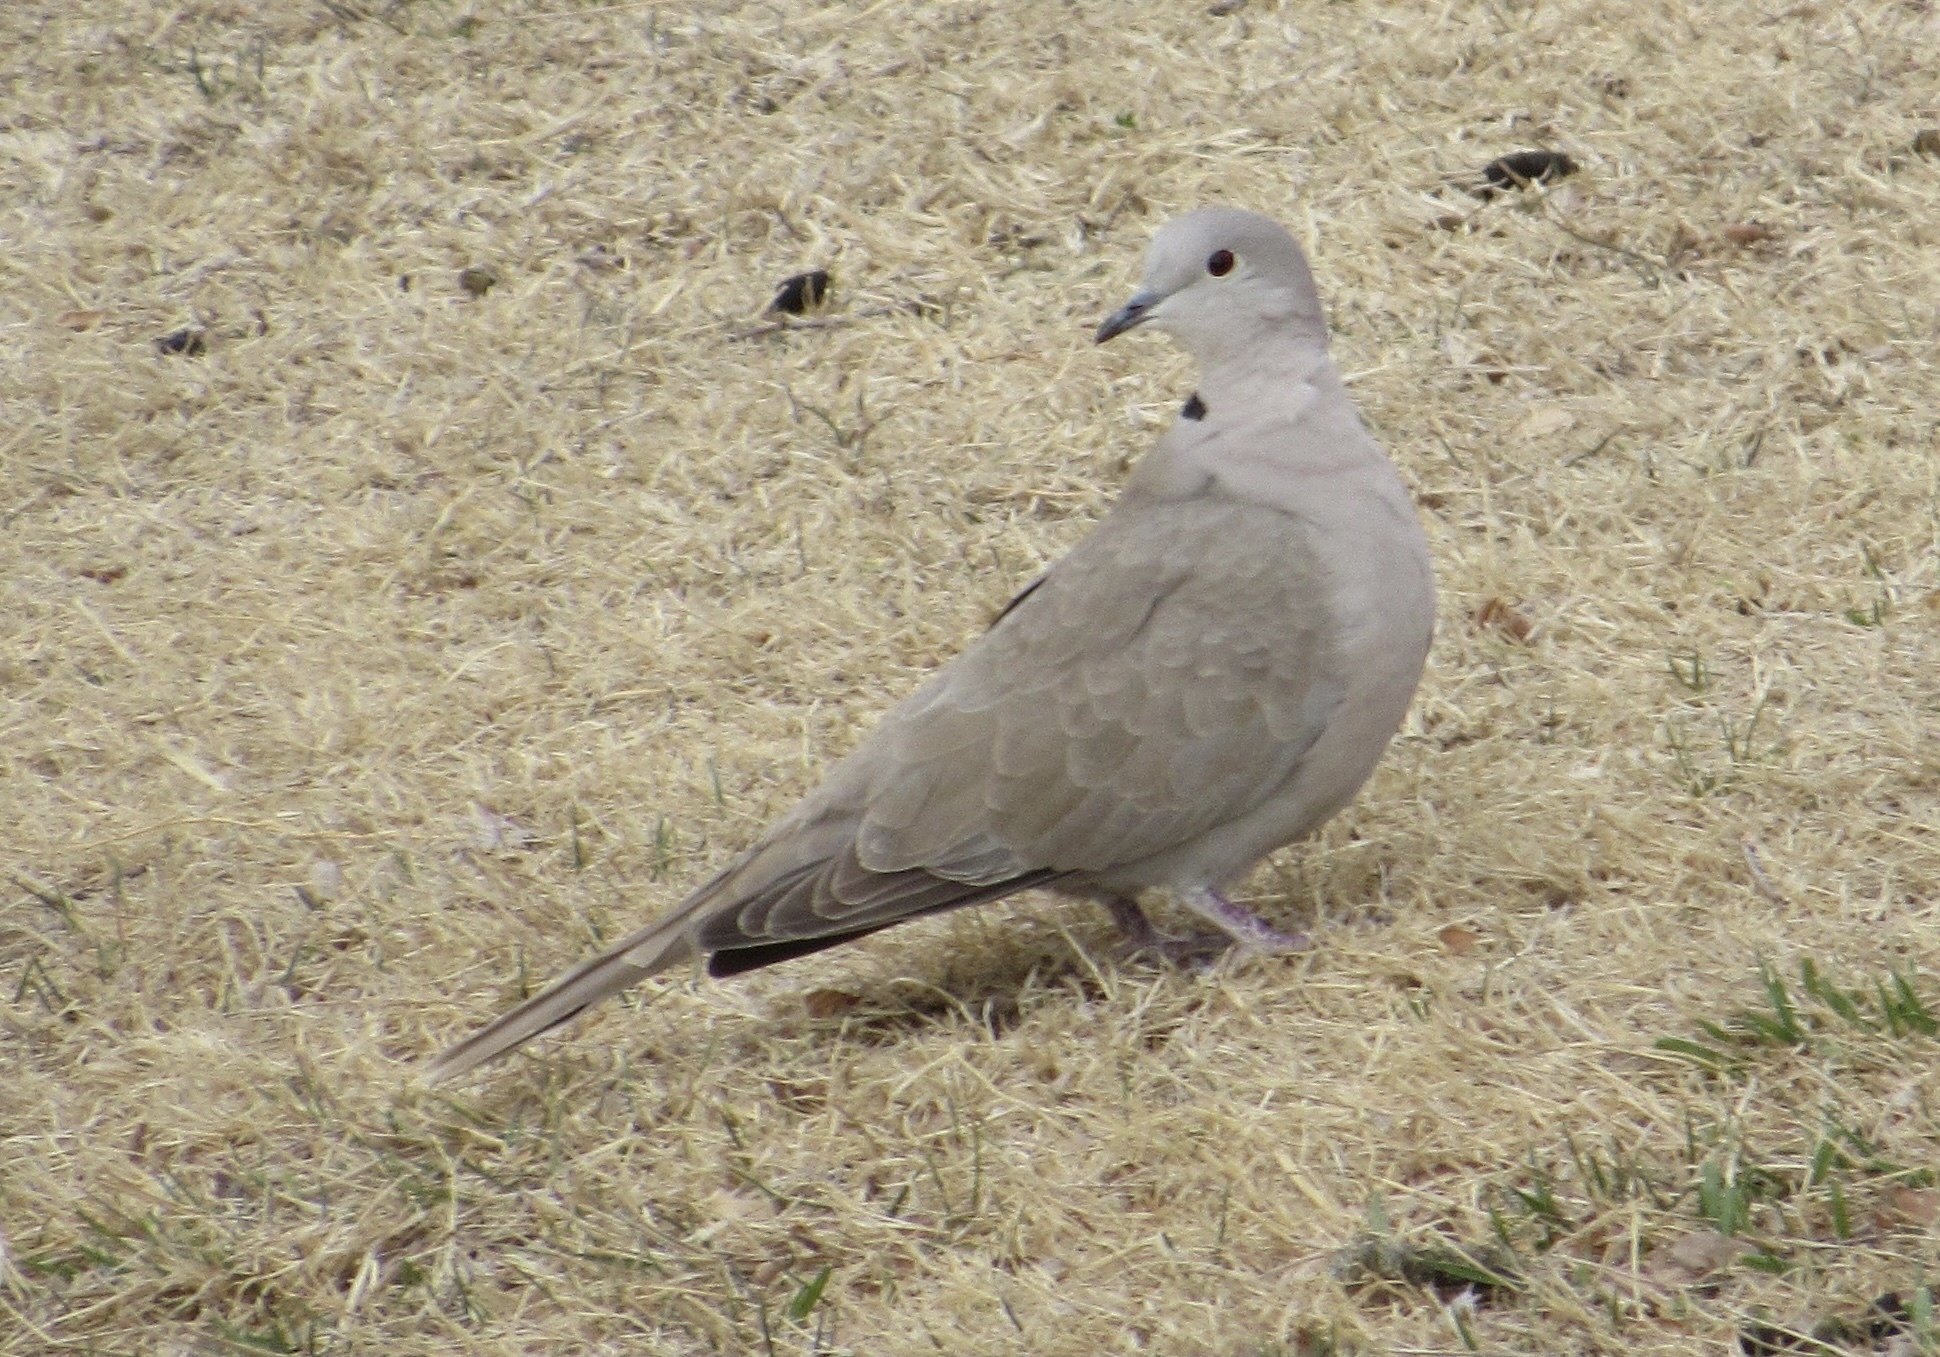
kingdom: Animalia
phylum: Chordata
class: Aves
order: Columbiformes
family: Columbidae
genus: Streptopelia
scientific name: Streptopelia decaocto
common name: Eurasian collared dove
